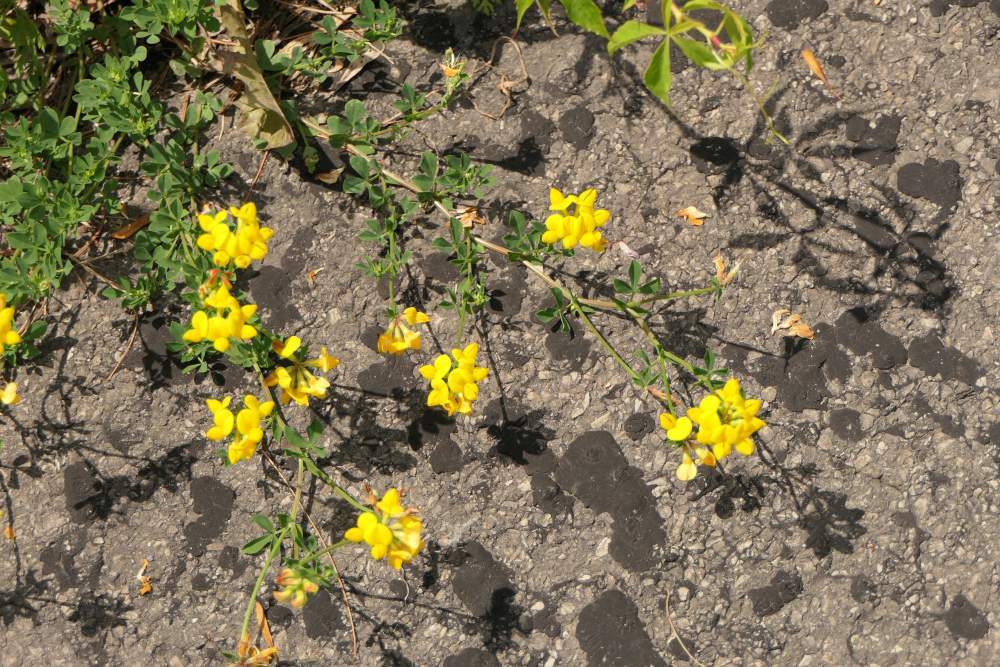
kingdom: Plantae
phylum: Tracheophyta
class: Magnoliopsida
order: Fabales
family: Fabaceae
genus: Lotus
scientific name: Lotus corniculatus
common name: Common bird's-foot-trefoil
